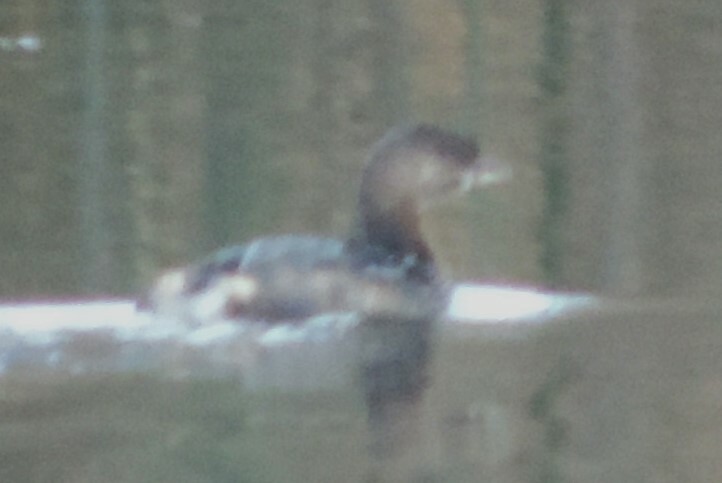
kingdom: Animalia
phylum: Chordata
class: Aves
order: Podicipediformes
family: Podicipedidae
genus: Podilymbus
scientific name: Podilymbus podiceps
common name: Pied-billed grebe
